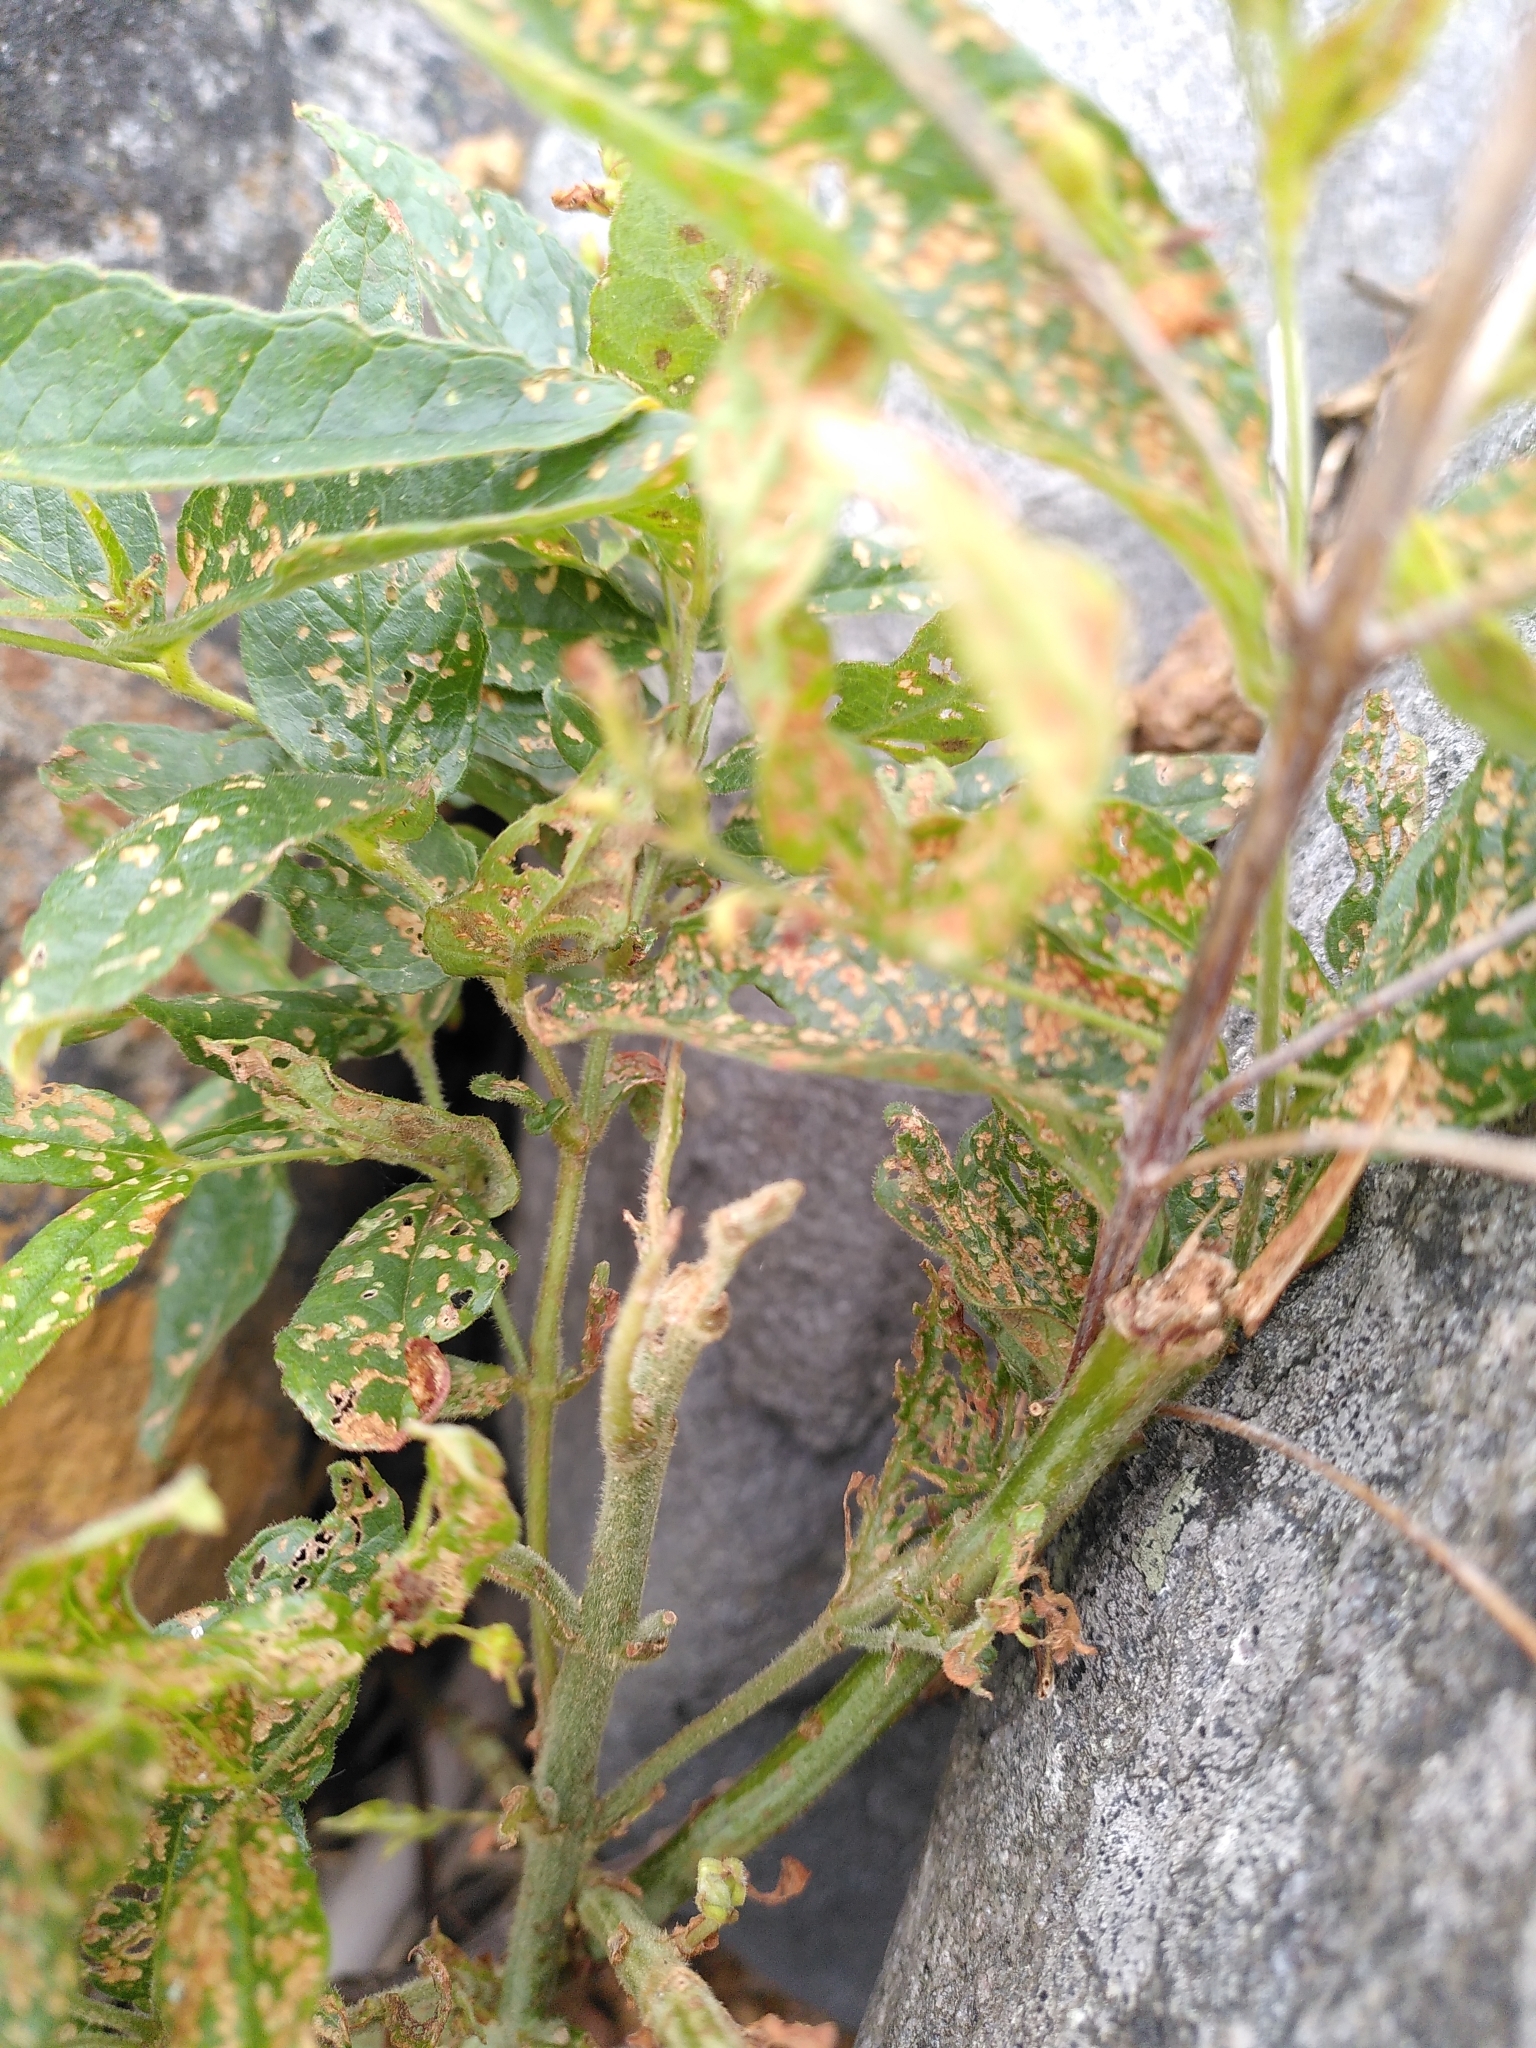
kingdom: Plantae
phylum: Tracheophyta
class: Magnoliopsida
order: Ericales
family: Primulaceae
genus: Lysimachia
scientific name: Lysimachia vulgaris
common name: Yellow loosestrife
